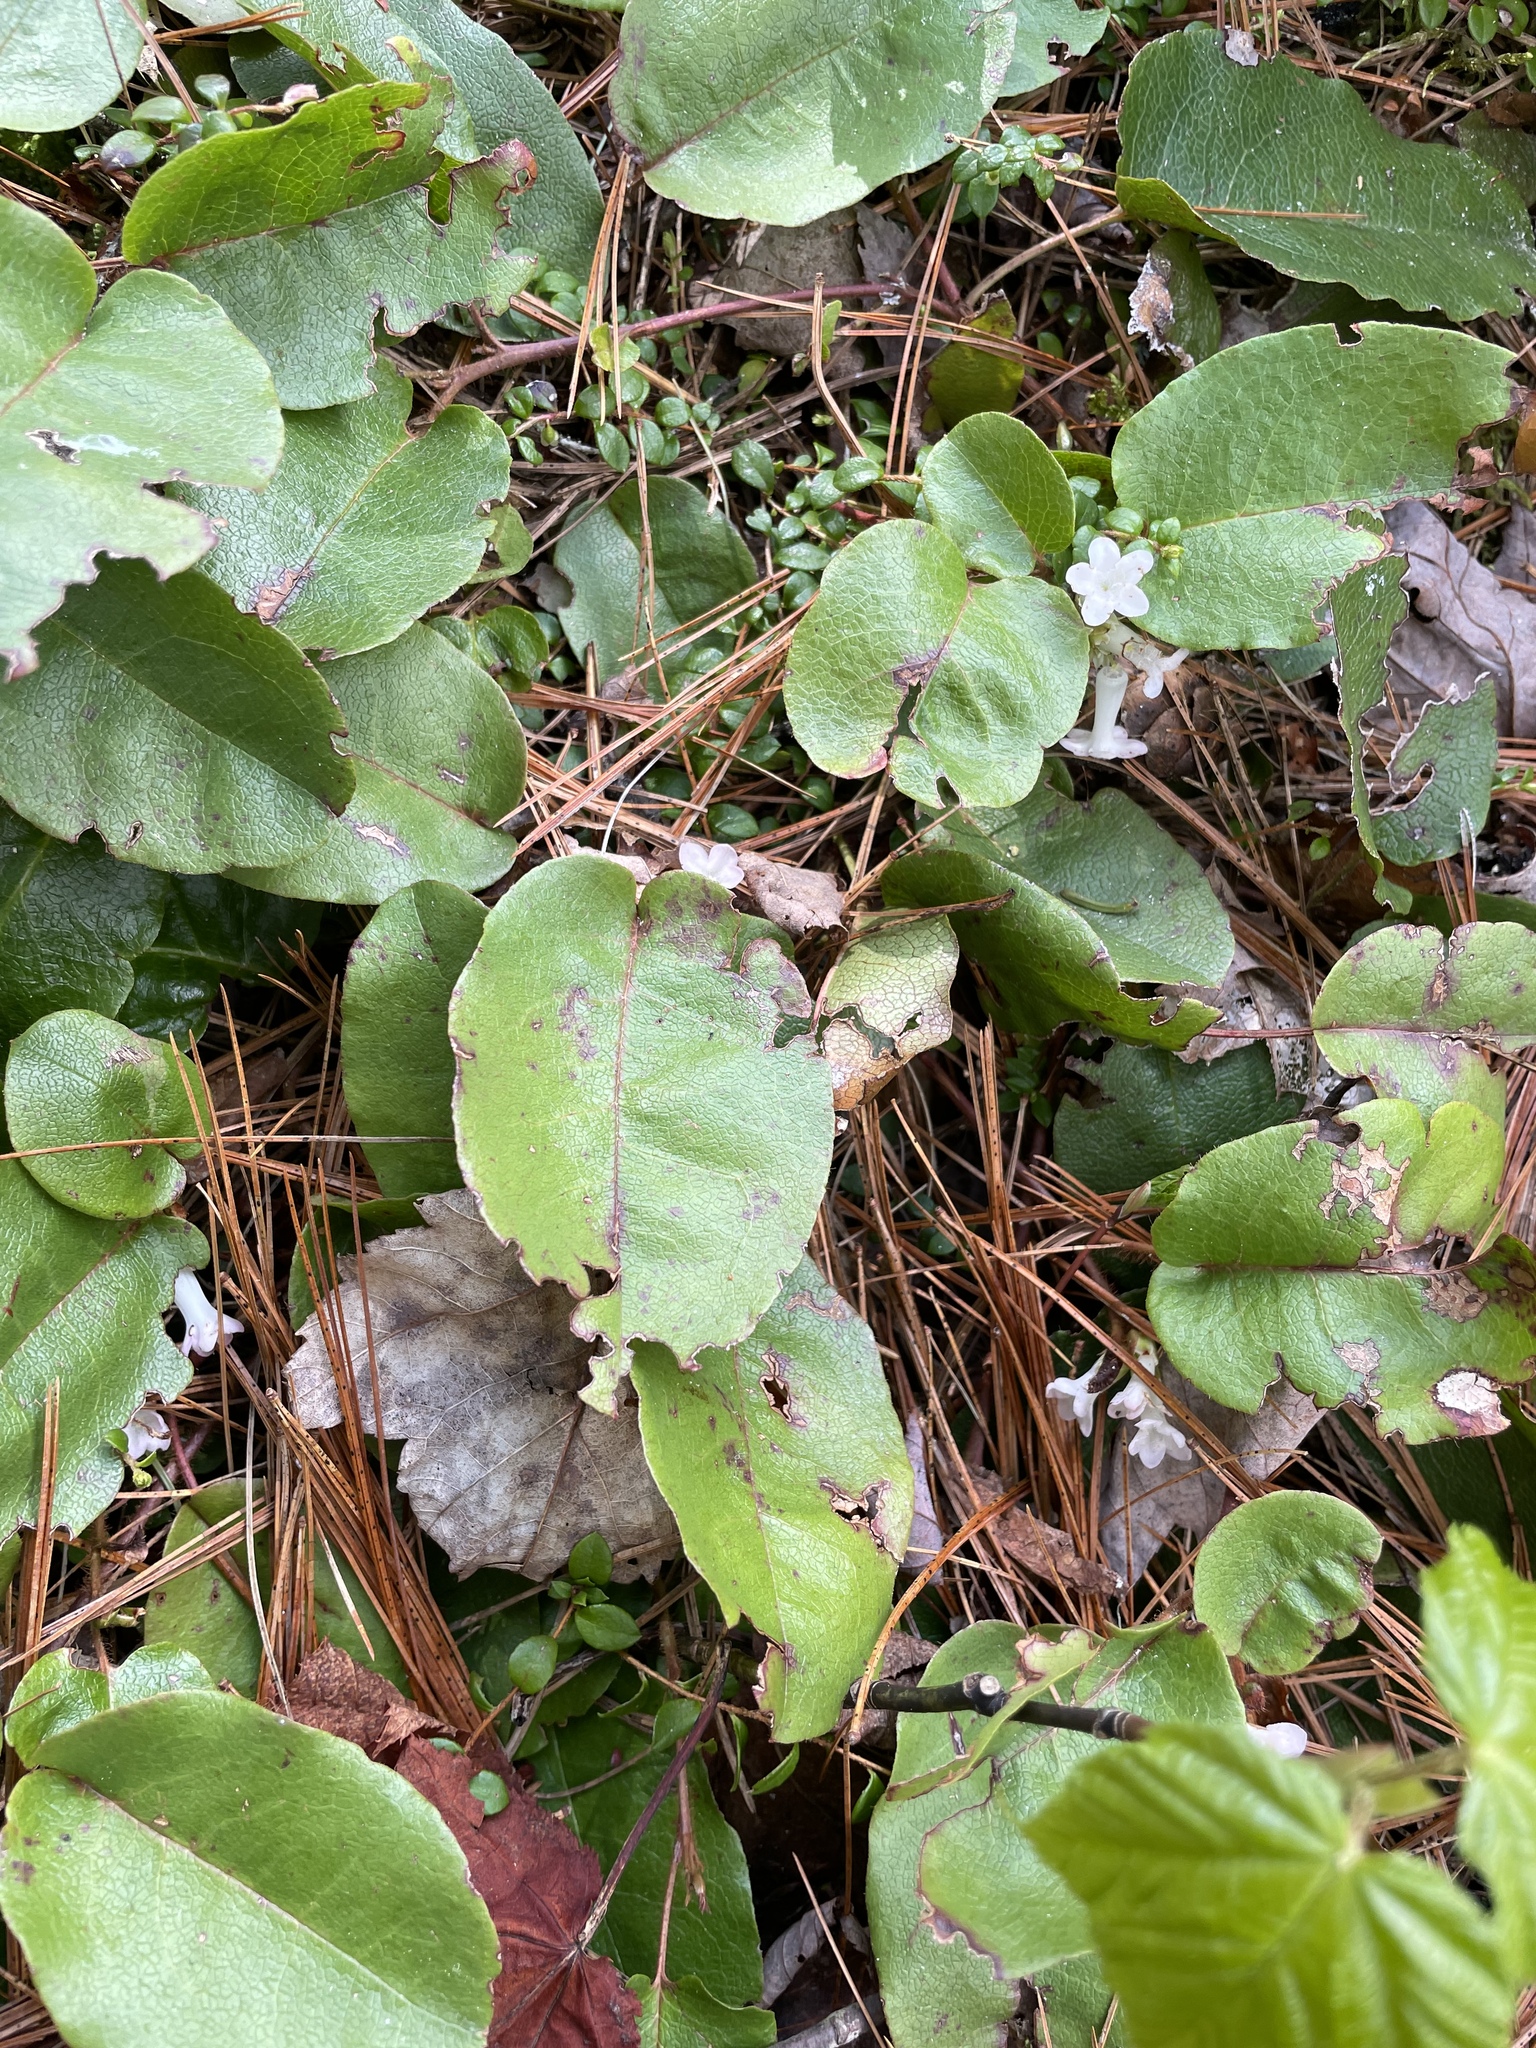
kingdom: Plantae
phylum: Tracheophyta
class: Magnoliopsida
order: Ericales
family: Ericaceae
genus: Epigaea
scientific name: Epigaea repens
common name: Gravelroot
